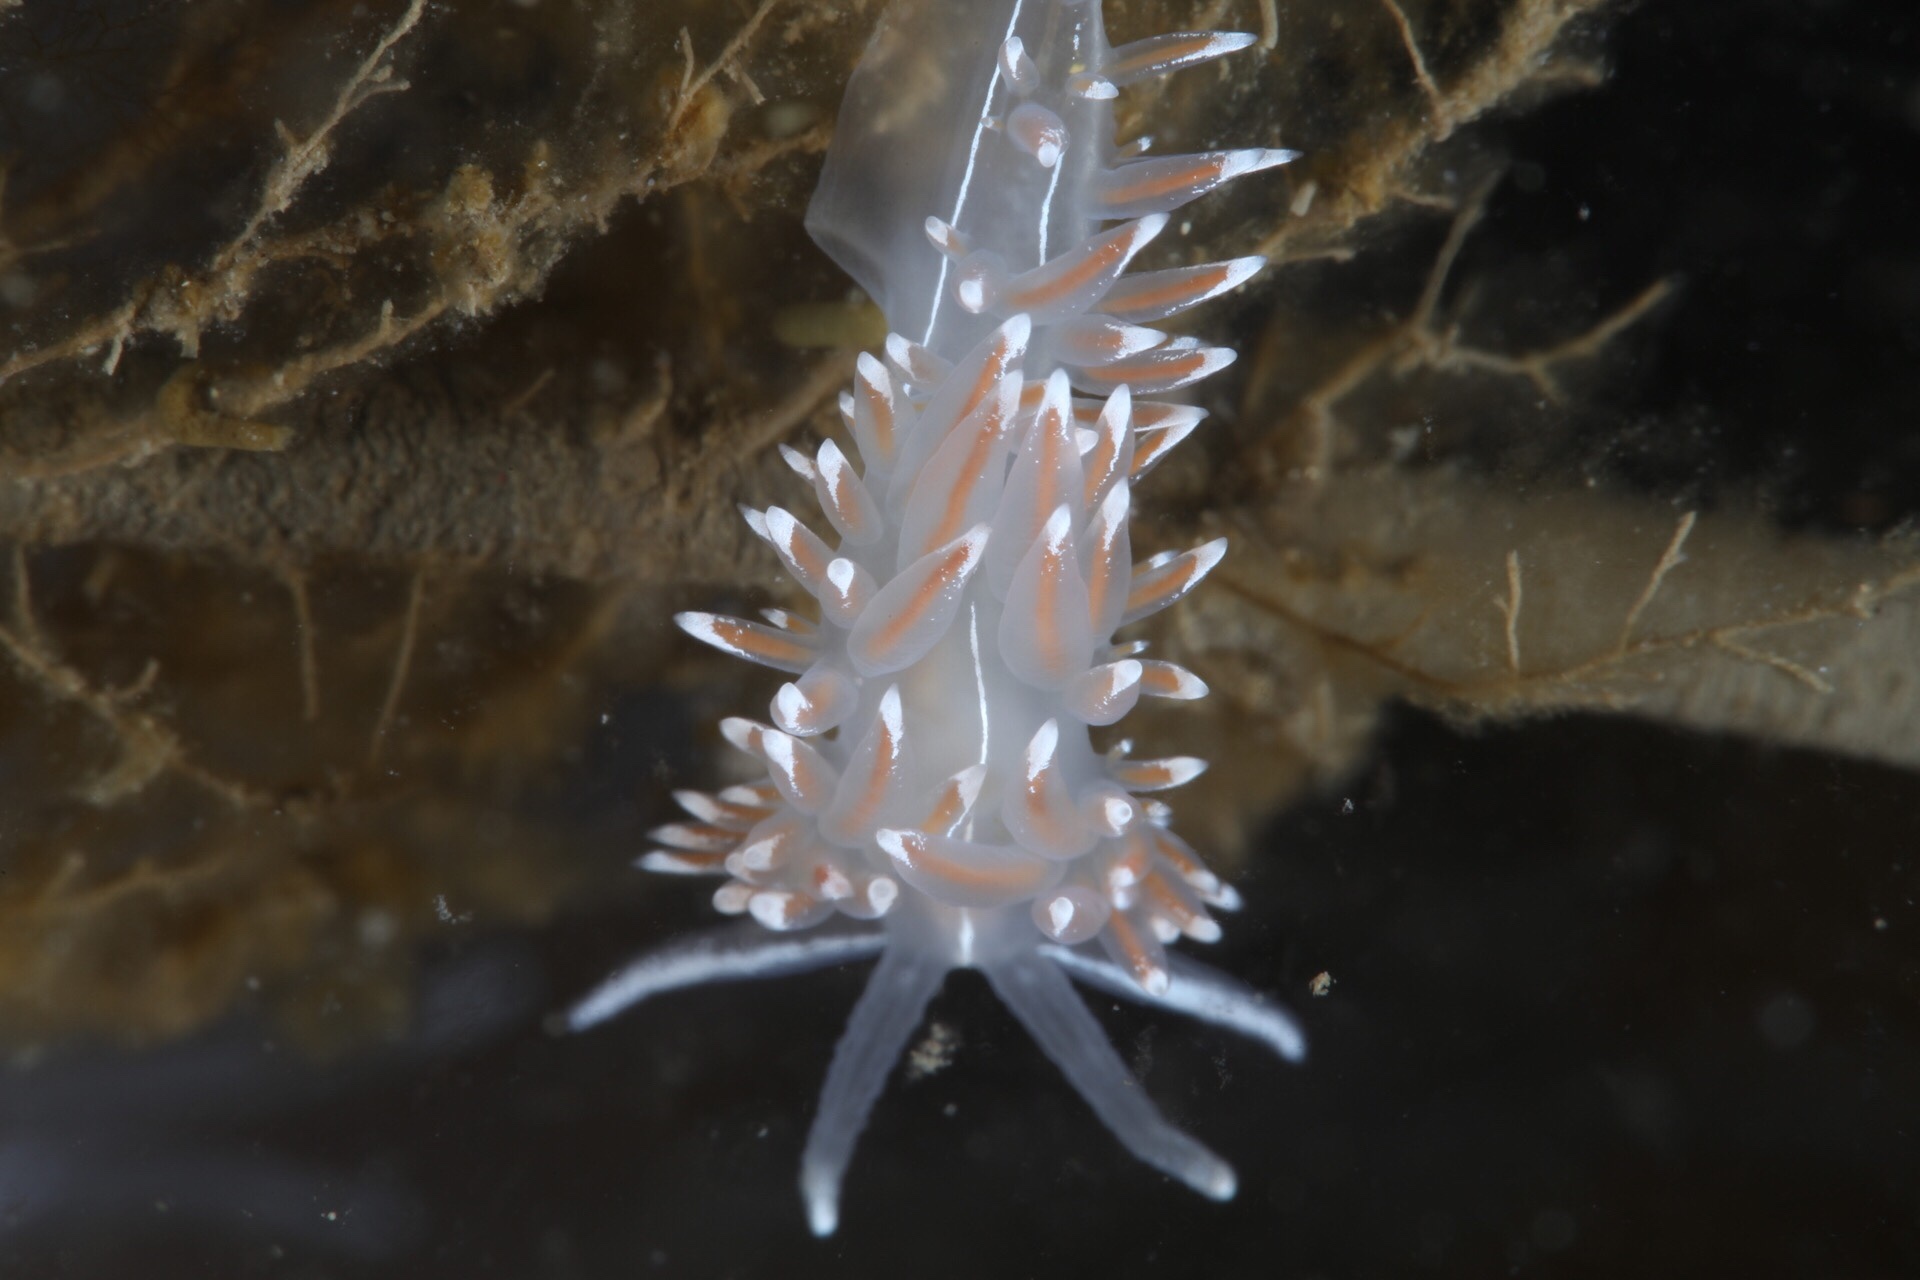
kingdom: Animalia
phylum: Mollusca
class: Gastropoda
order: Nudibranchia
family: Coryphellidae
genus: Coryphella
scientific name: Coryphella lineata
